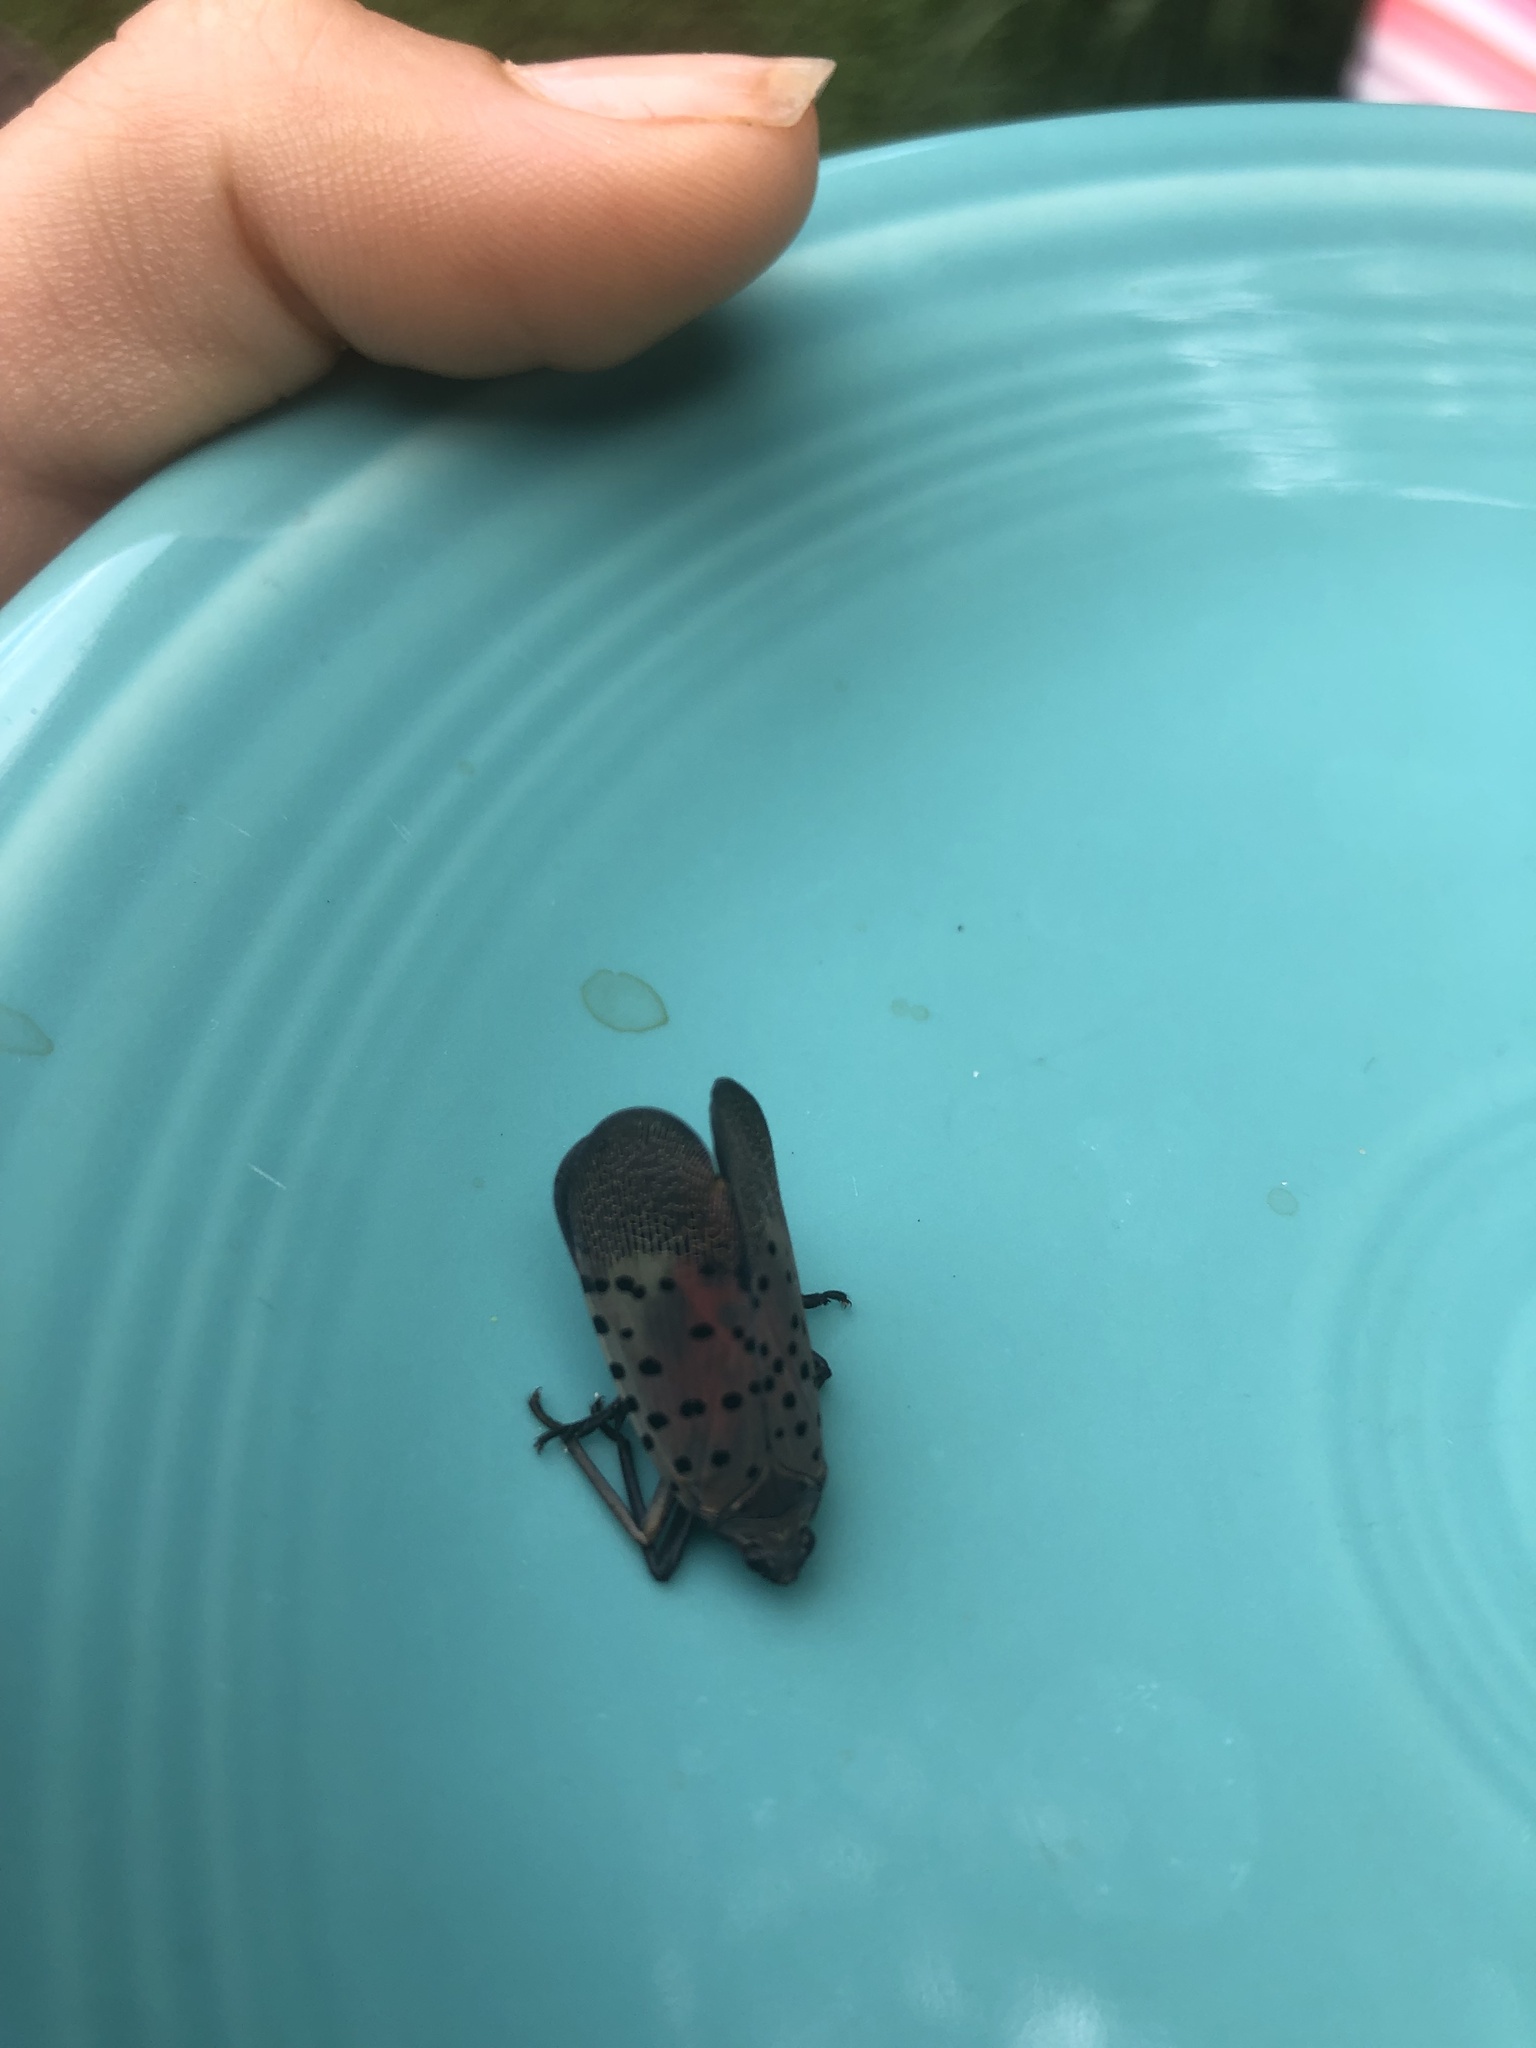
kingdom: Animalia
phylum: Arthropoda
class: Insecta
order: Hemiptera
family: Fulgoridae
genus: Lycorma
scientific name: Lycorma delicatula
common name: Spotted lanternfly
